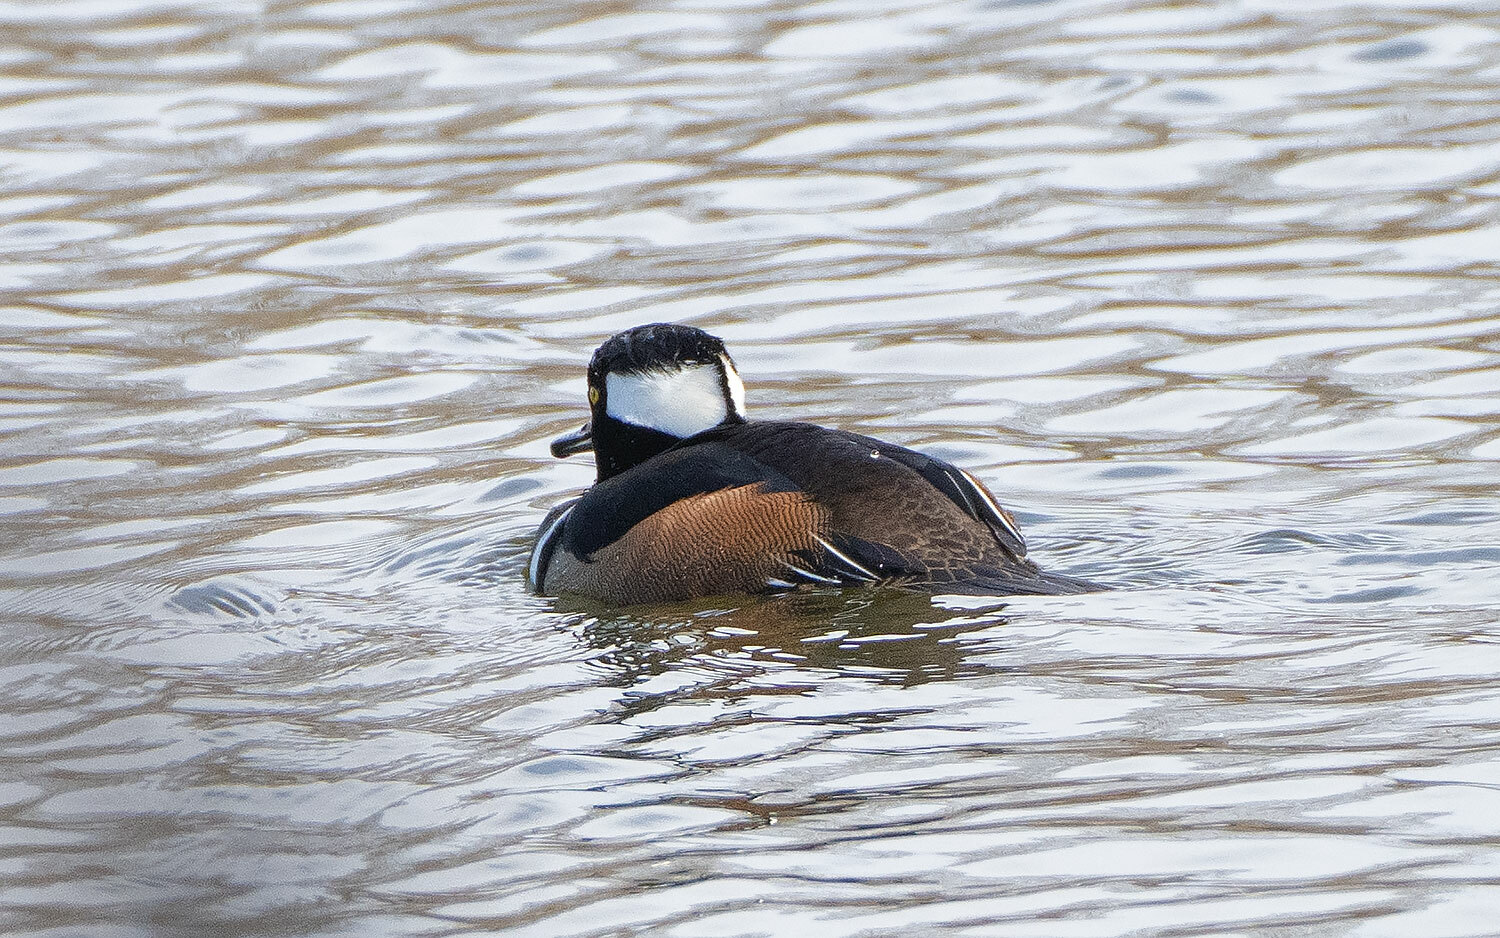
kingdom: Animalia
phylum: Chordata
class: Aves
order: Anseriformes
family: Anatidae
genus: Lophodytes
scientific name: Lophodytes cucullatus
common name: Hooded merganser
